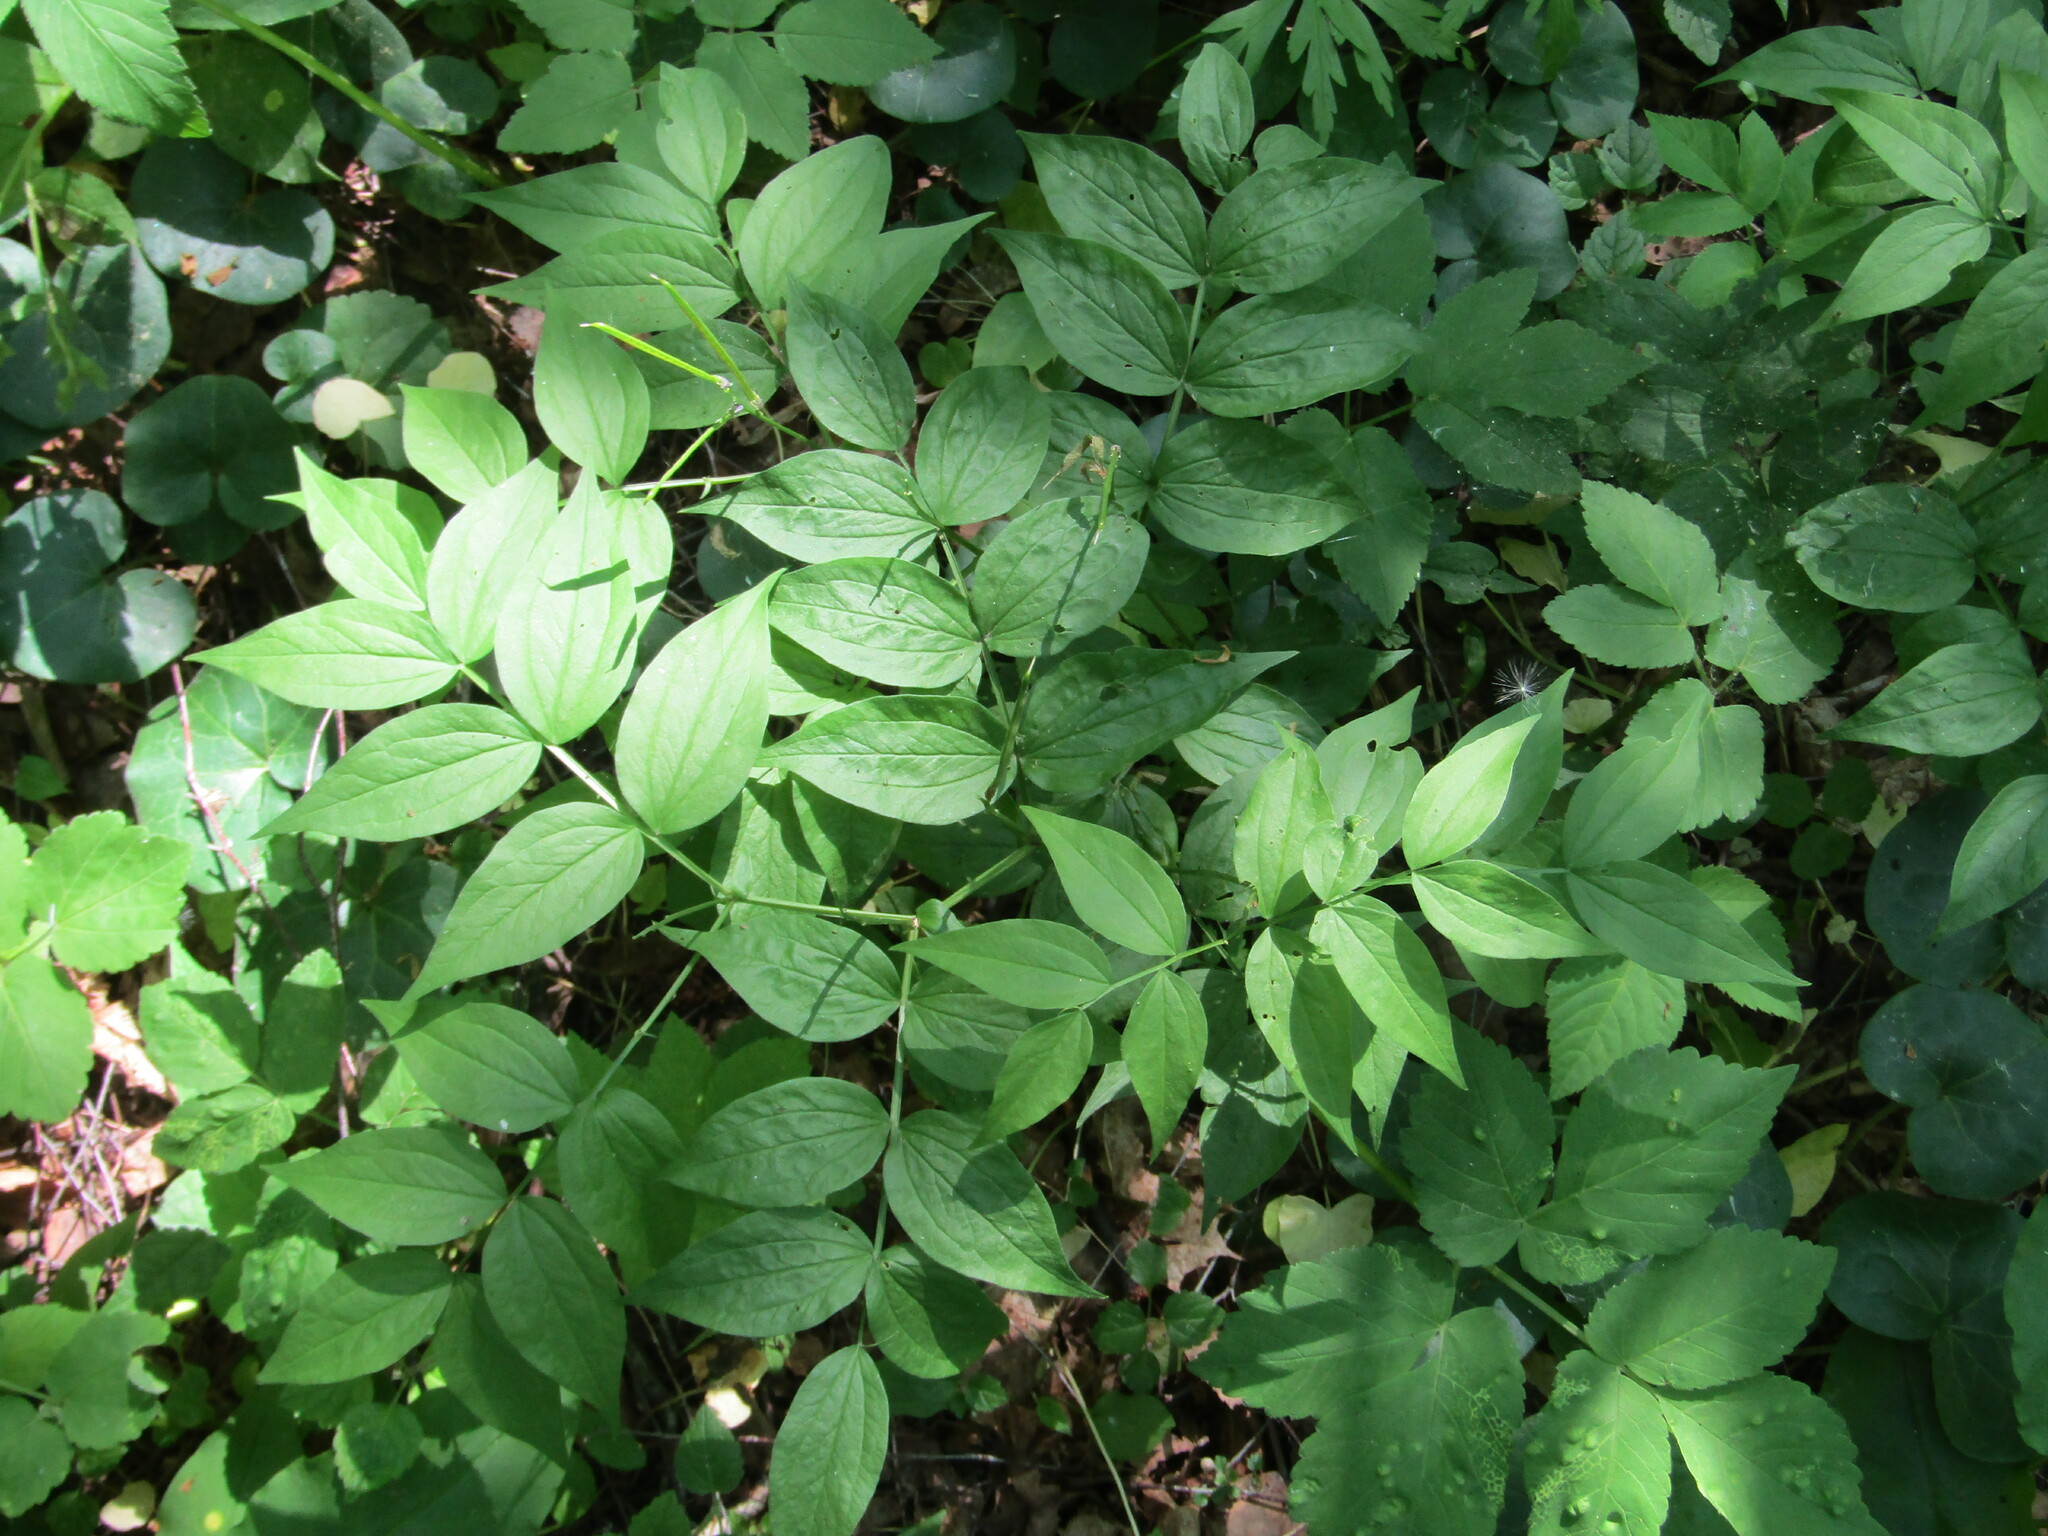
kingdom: Plantae
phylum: Tracheophyta
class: Magnoliopsida
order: Fabales
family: Fabaceae
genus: Lathyrus
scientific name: Lathyrus vernus
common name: Spring pea
